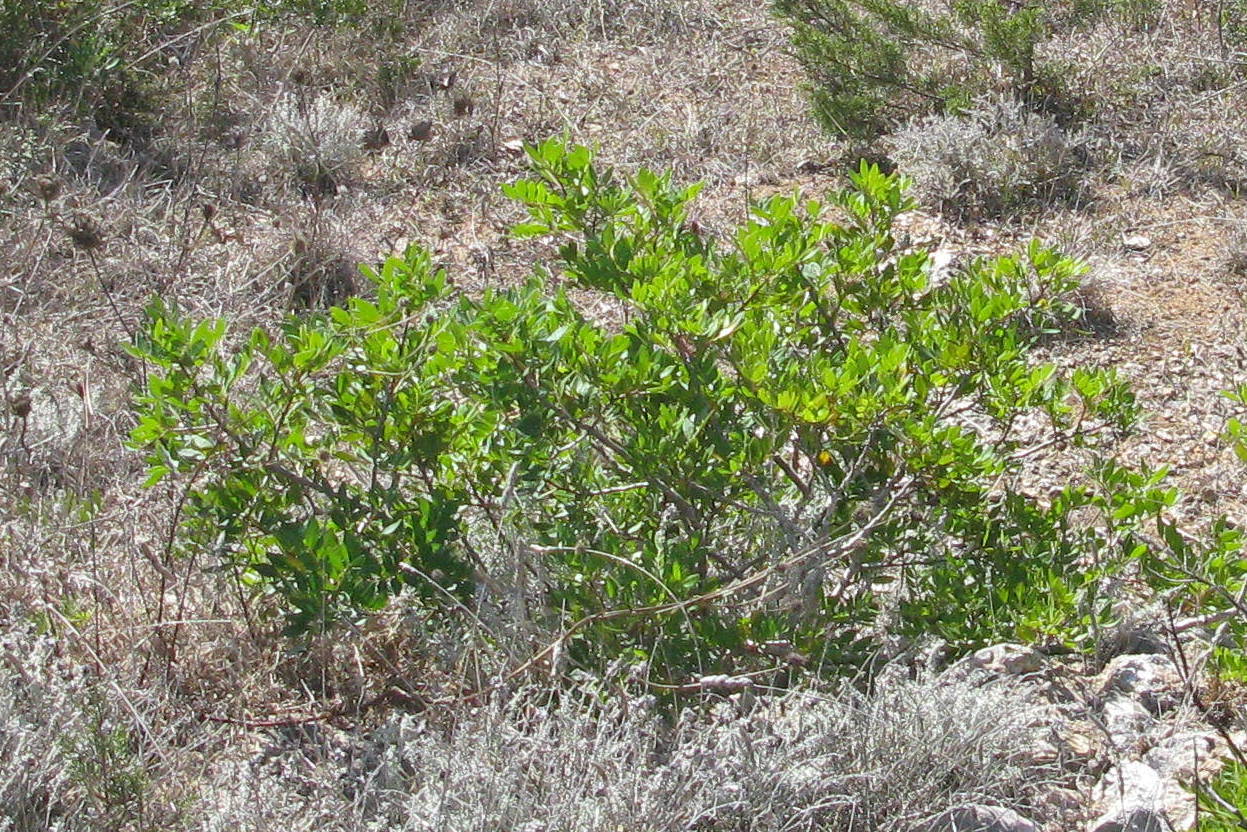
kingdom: Plantae
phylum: Tracheophyta
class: Magnoliopsida
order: Sapindales
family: Anacardiaceae
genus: Pistacia
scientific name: Pistacia lentiscus
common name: Lentisk
